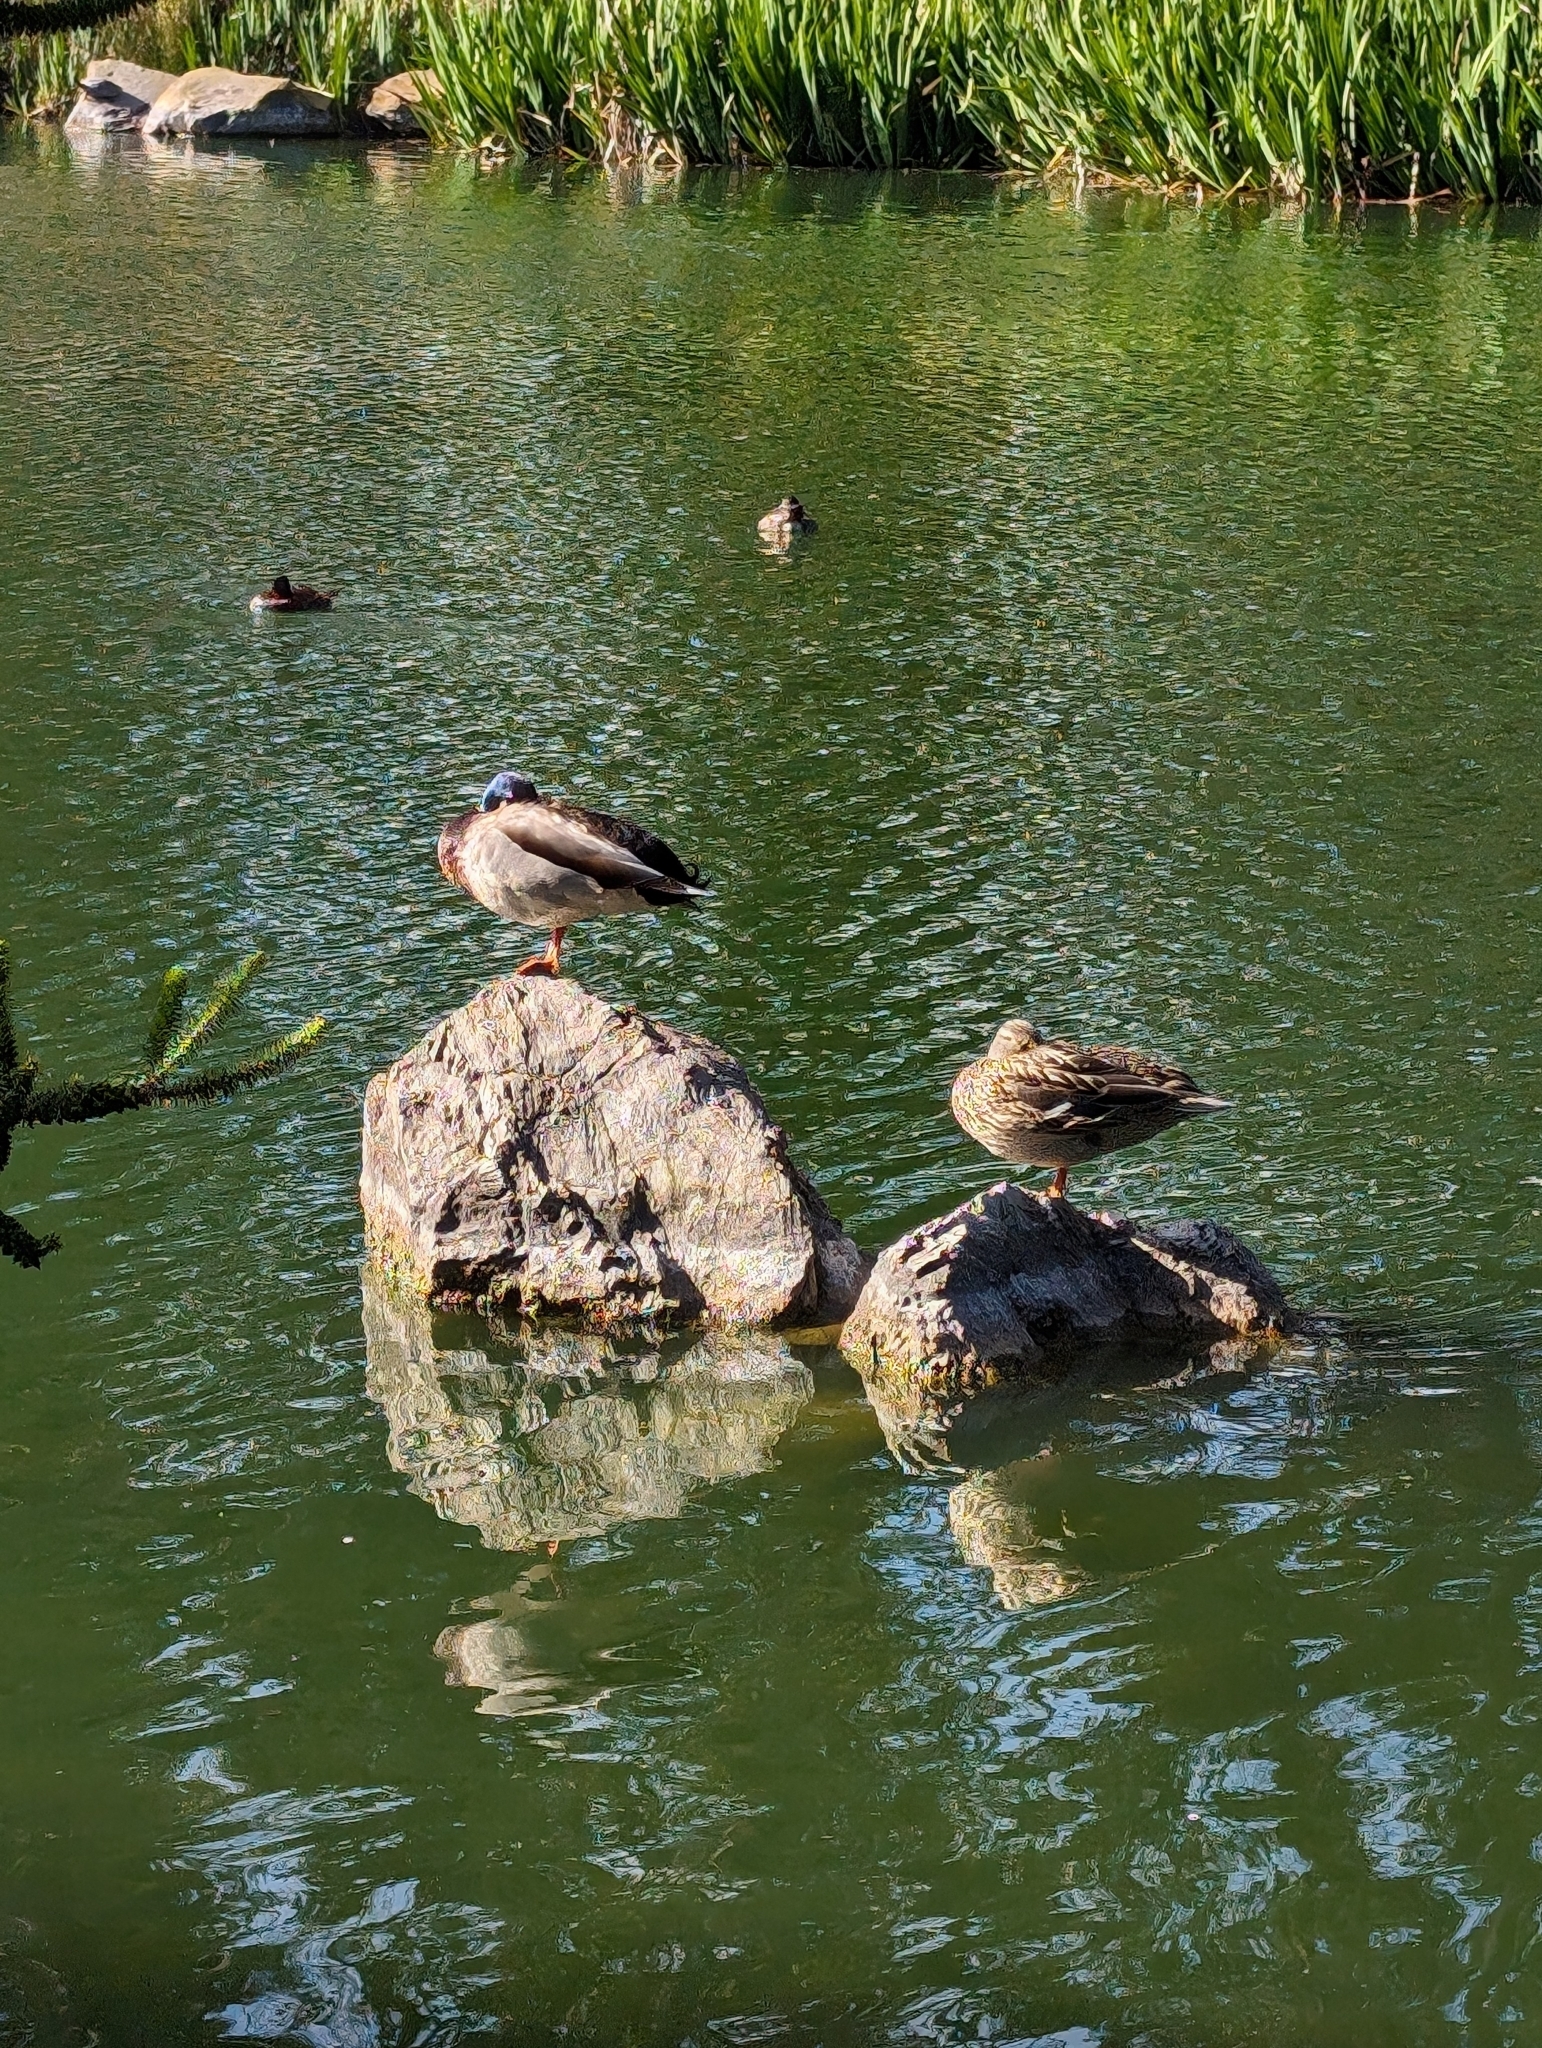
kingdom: Animalia
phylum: Chordata
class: Aves
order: Anseriformes
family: Anatidae
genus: Anas
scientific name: Anas platyrhynchos
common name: Mallard
